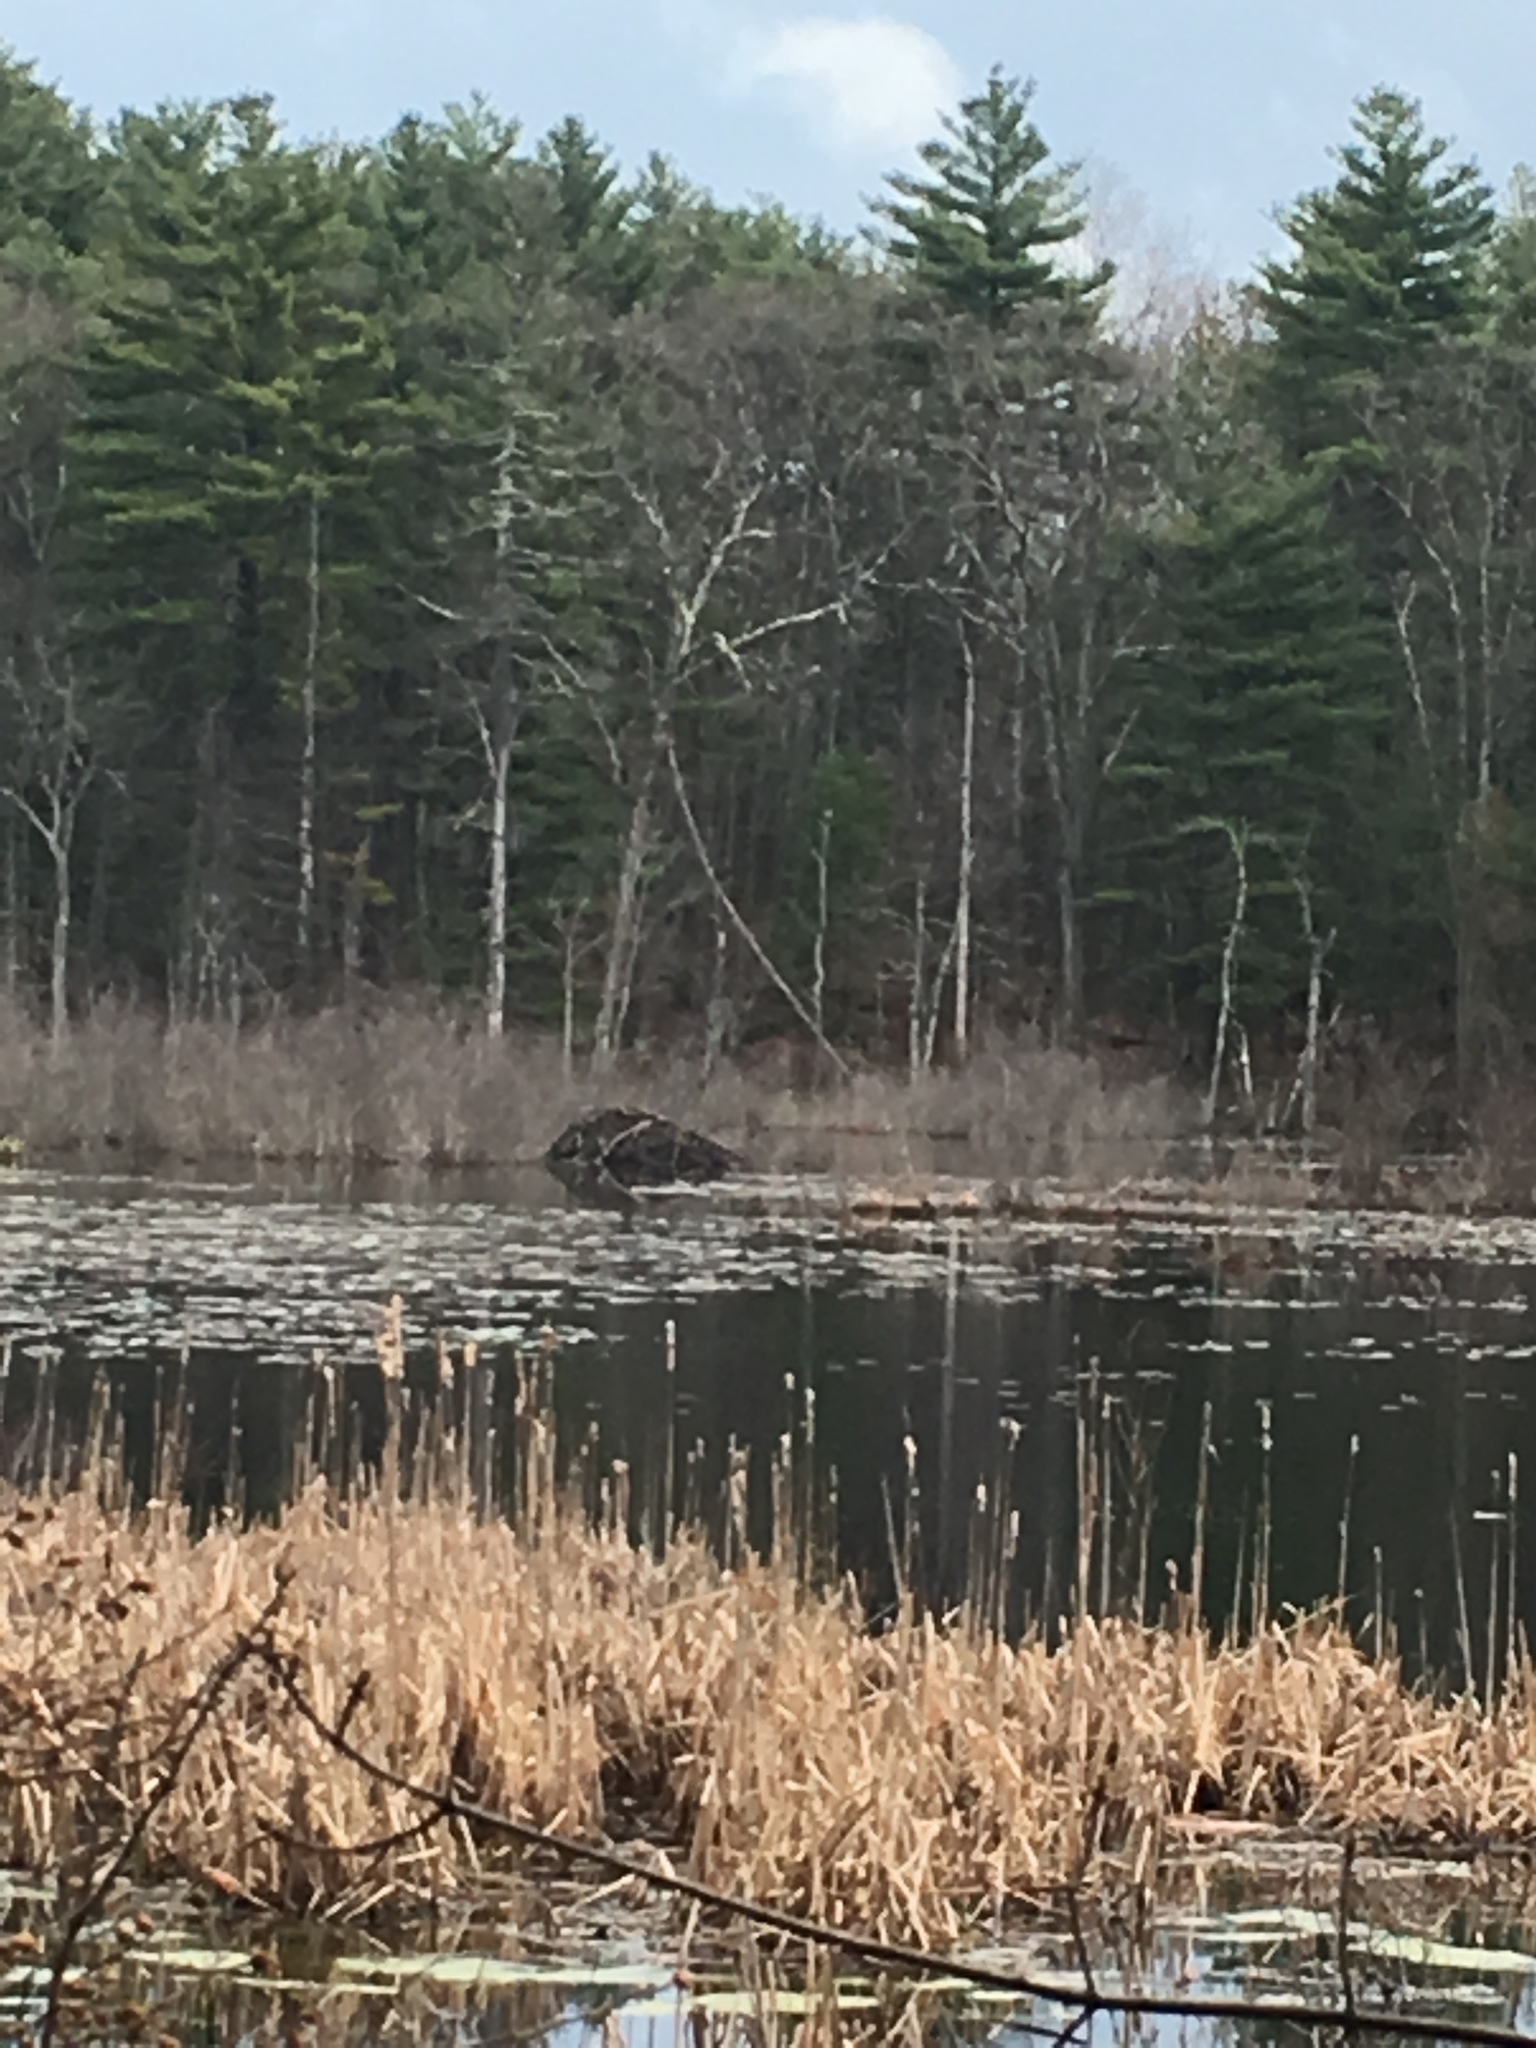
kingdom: Animalia
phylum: Chordata
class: Mammalia
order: Rodentia
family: Castoridae
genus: Castor
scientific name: Castor canadensis
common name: American beaver
